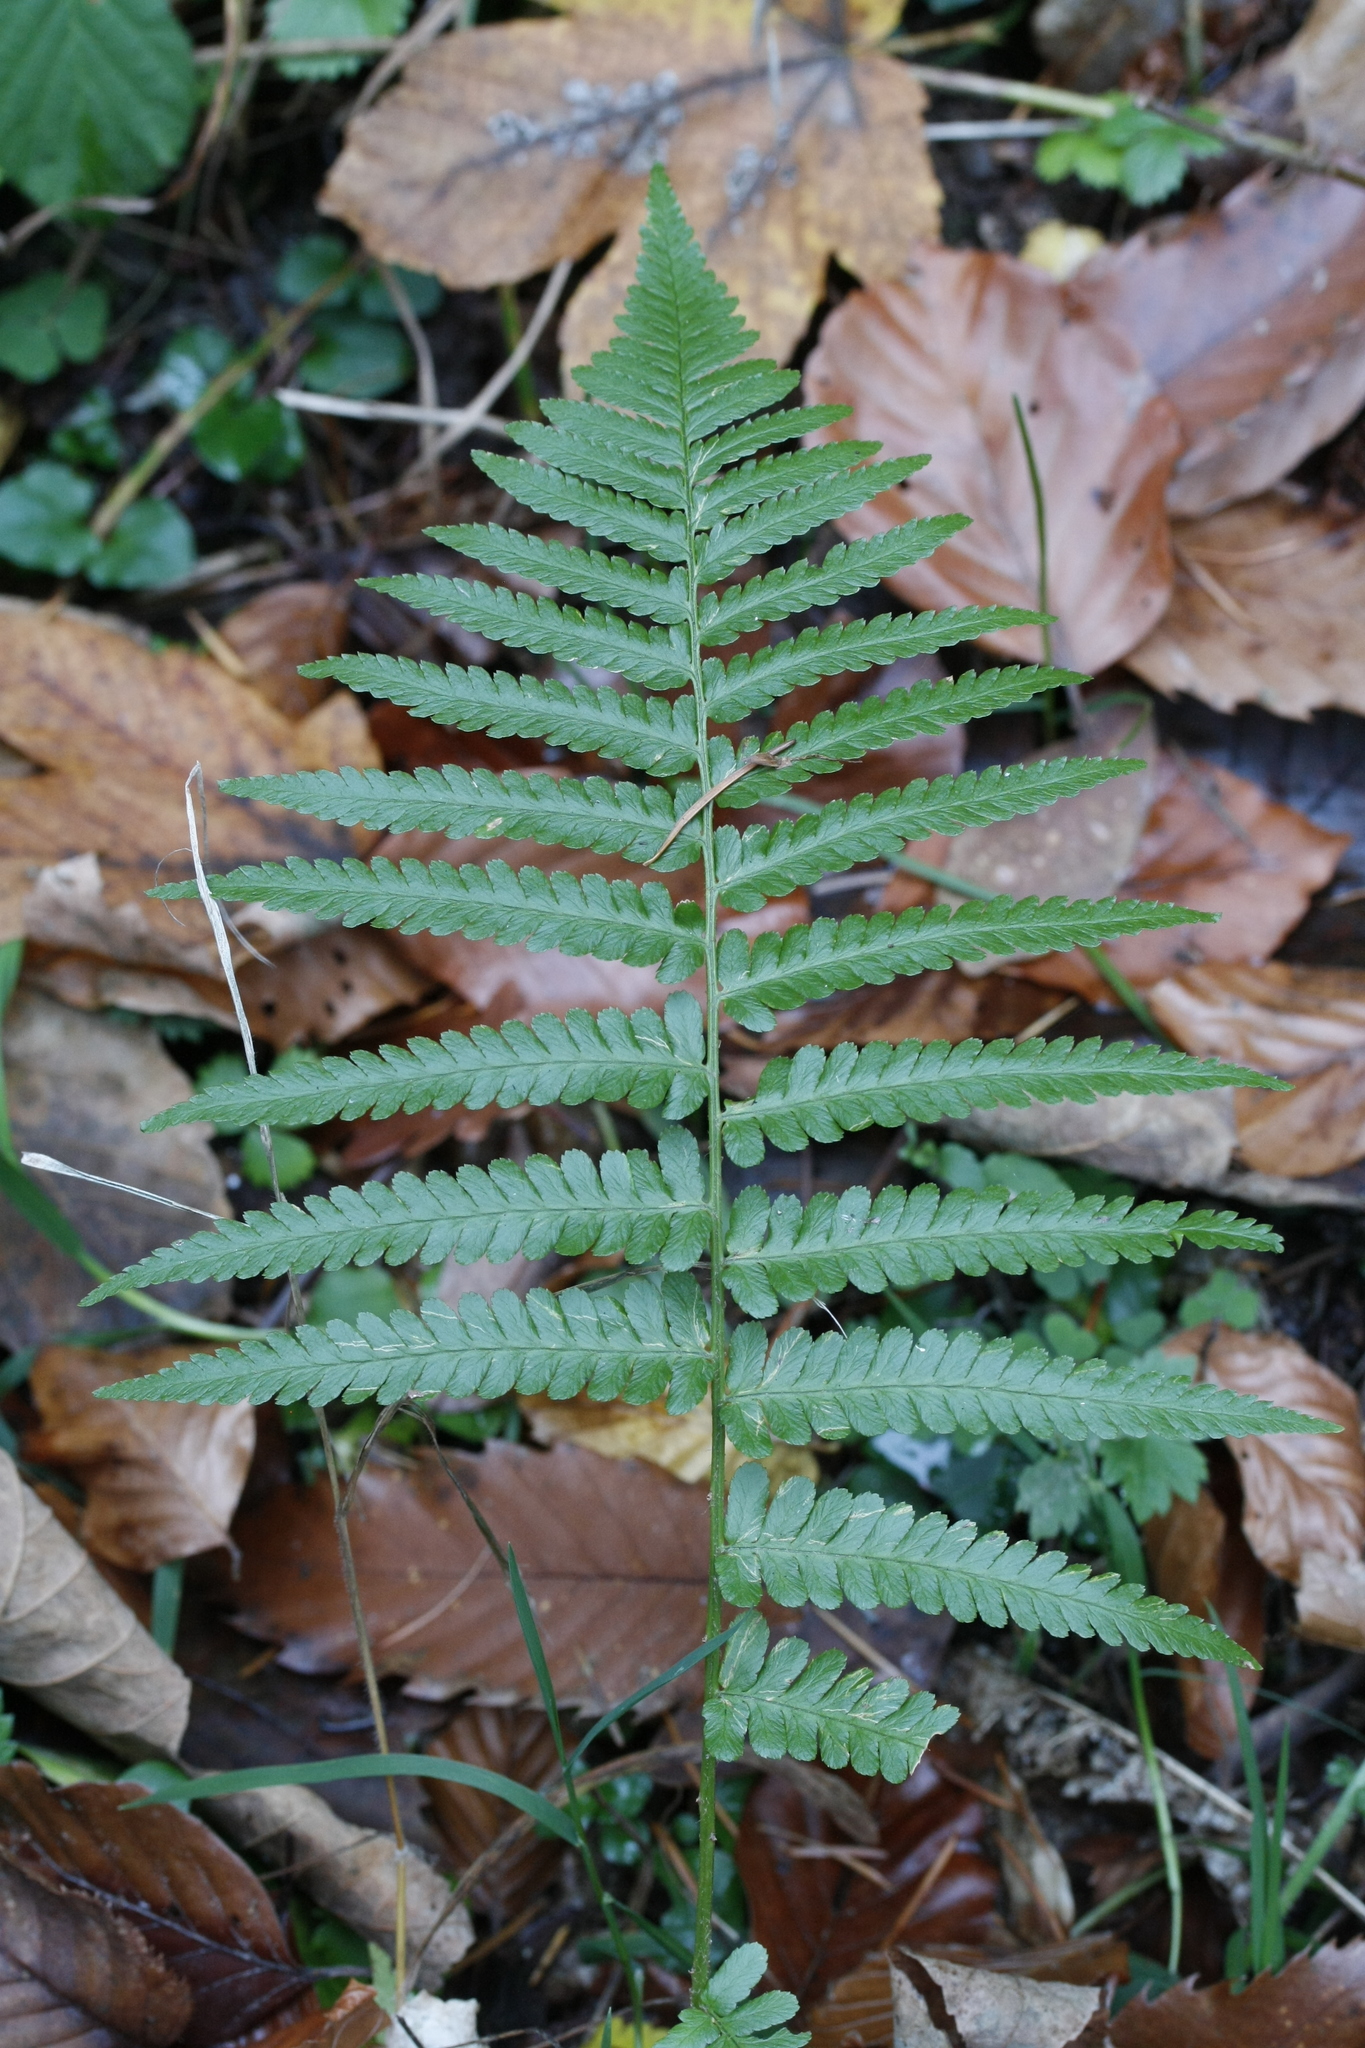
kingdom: Plantae
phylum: Tracheophyta
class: Polypodiopsida
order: Polypodiales
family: Dryopteridaceae
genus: Dryopteris
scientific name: Dryopteris filix-mas
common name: Male fern
